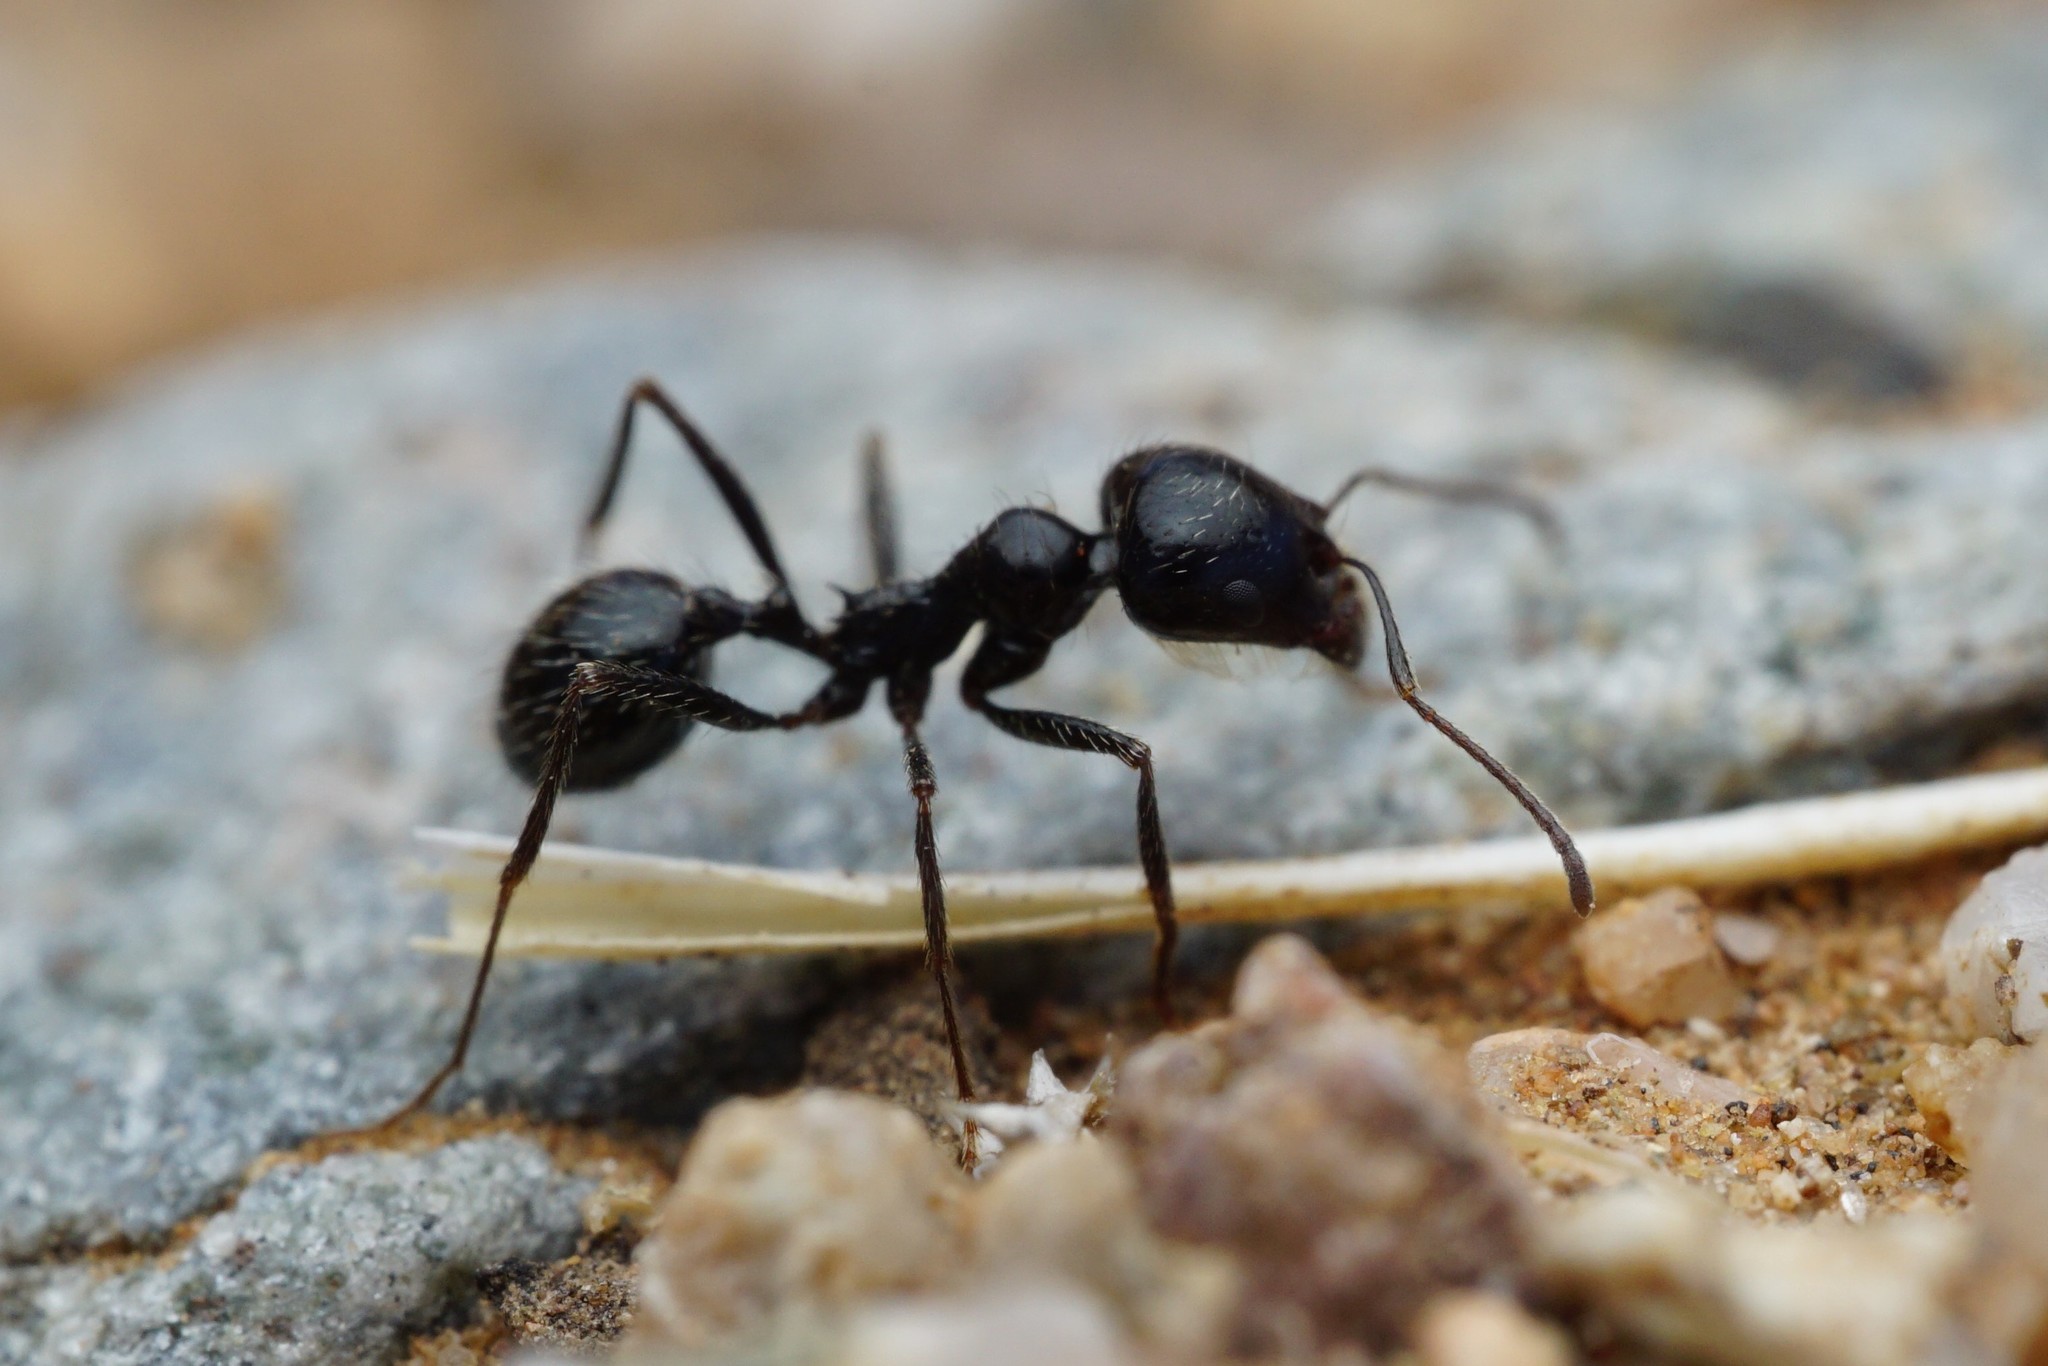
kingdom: Animalia
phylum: Arthropoda
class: Insecta
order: Hymenoptera
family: Formicidae
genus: Messor
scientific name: Messor pergandei
